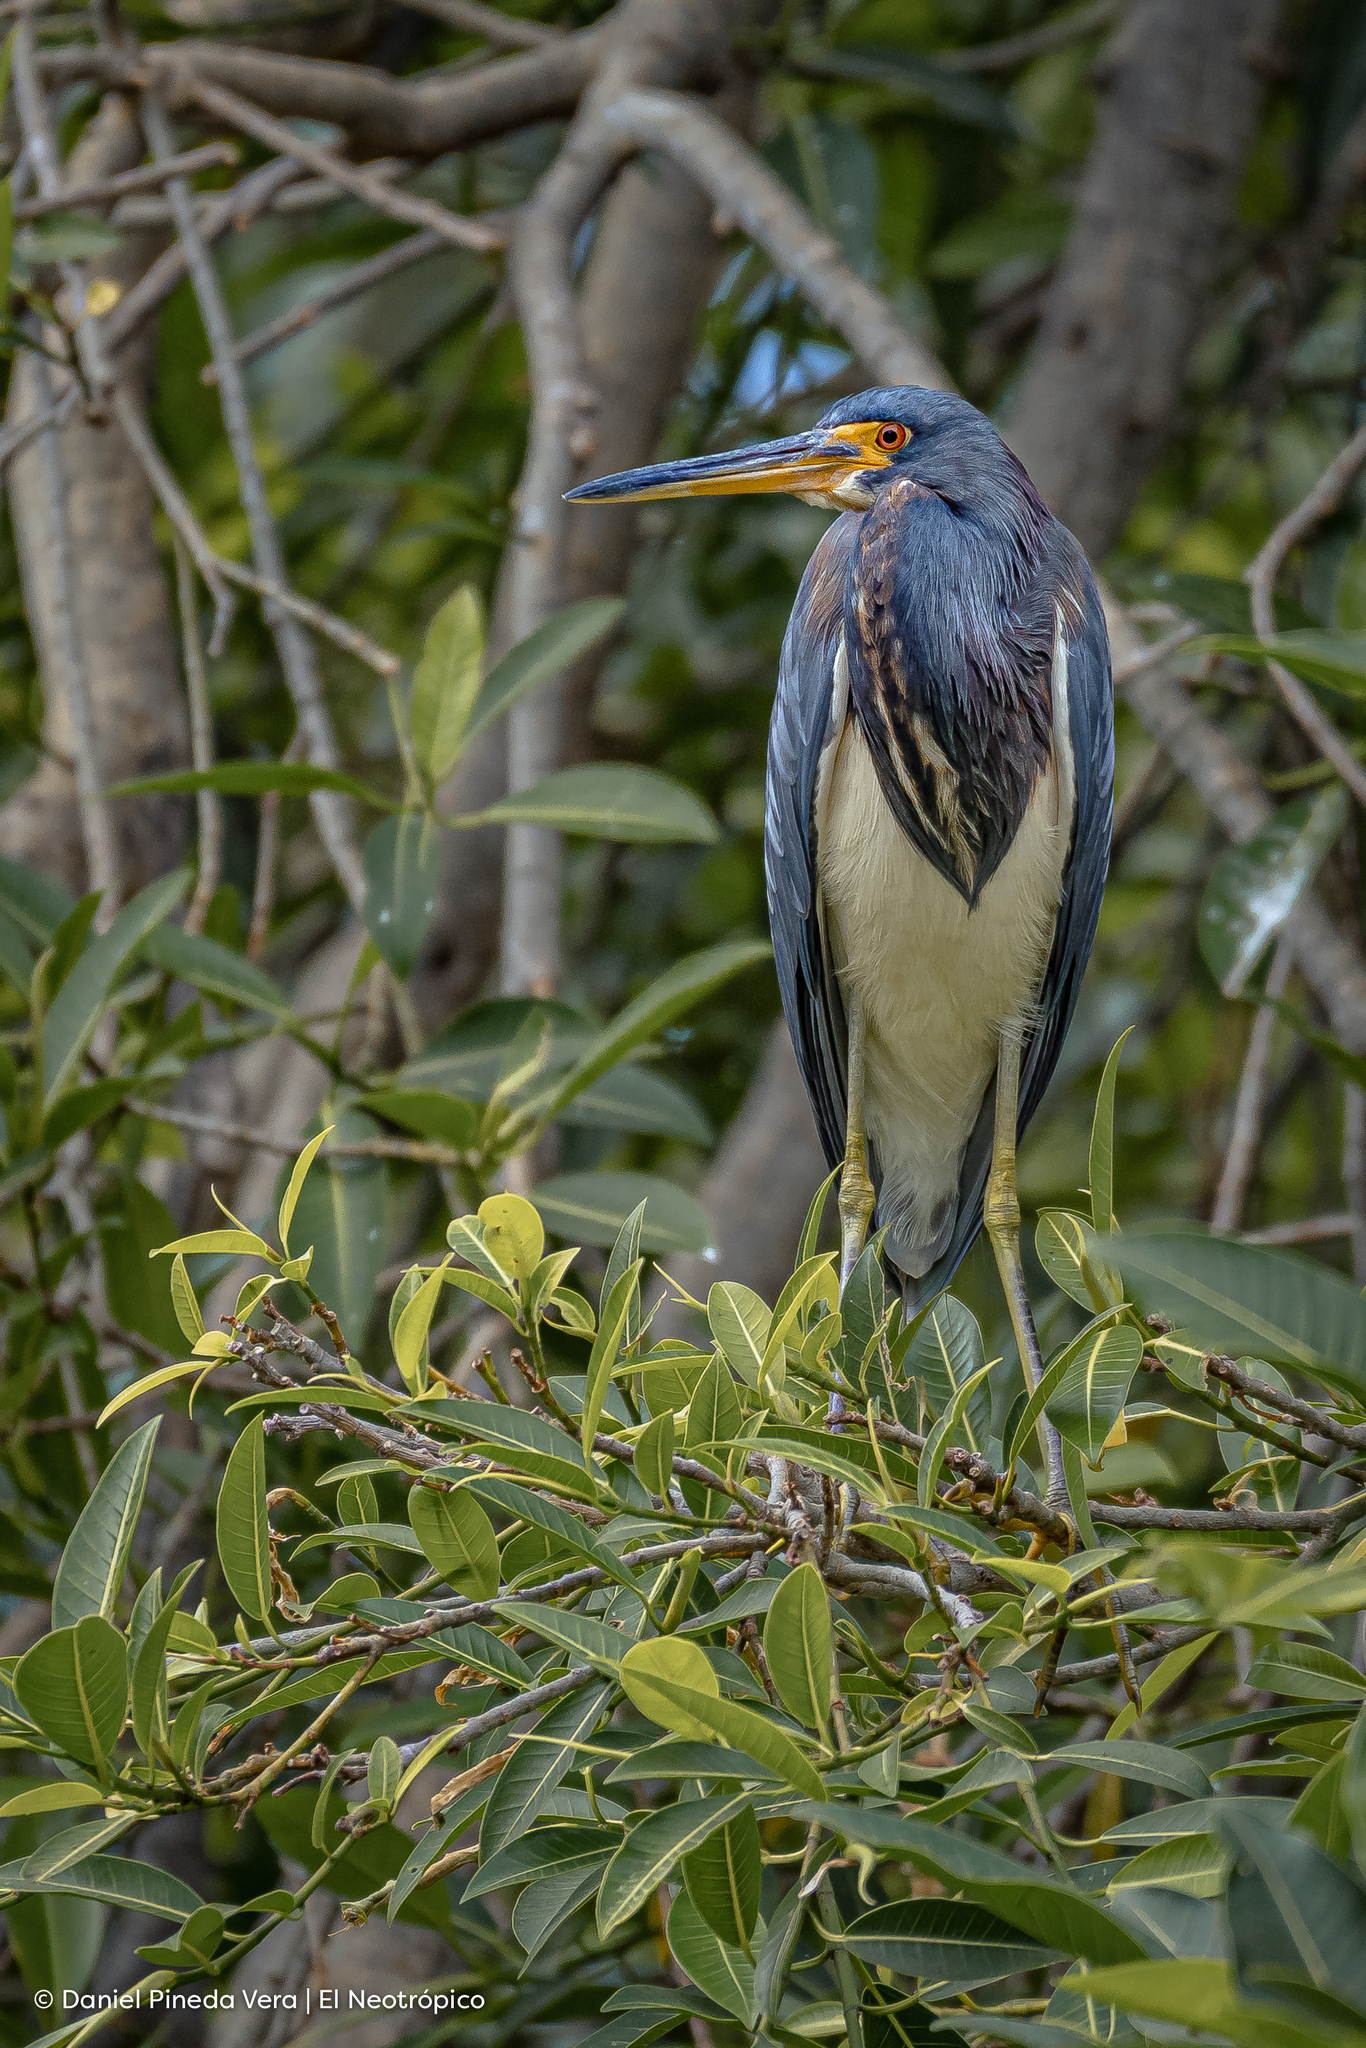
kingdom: Animalia
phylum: Chordata
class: Aves
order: Pelecaniformes
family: Ardeidae
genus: Egretta
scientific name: Egretta tricolor
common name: Tricolored heron
